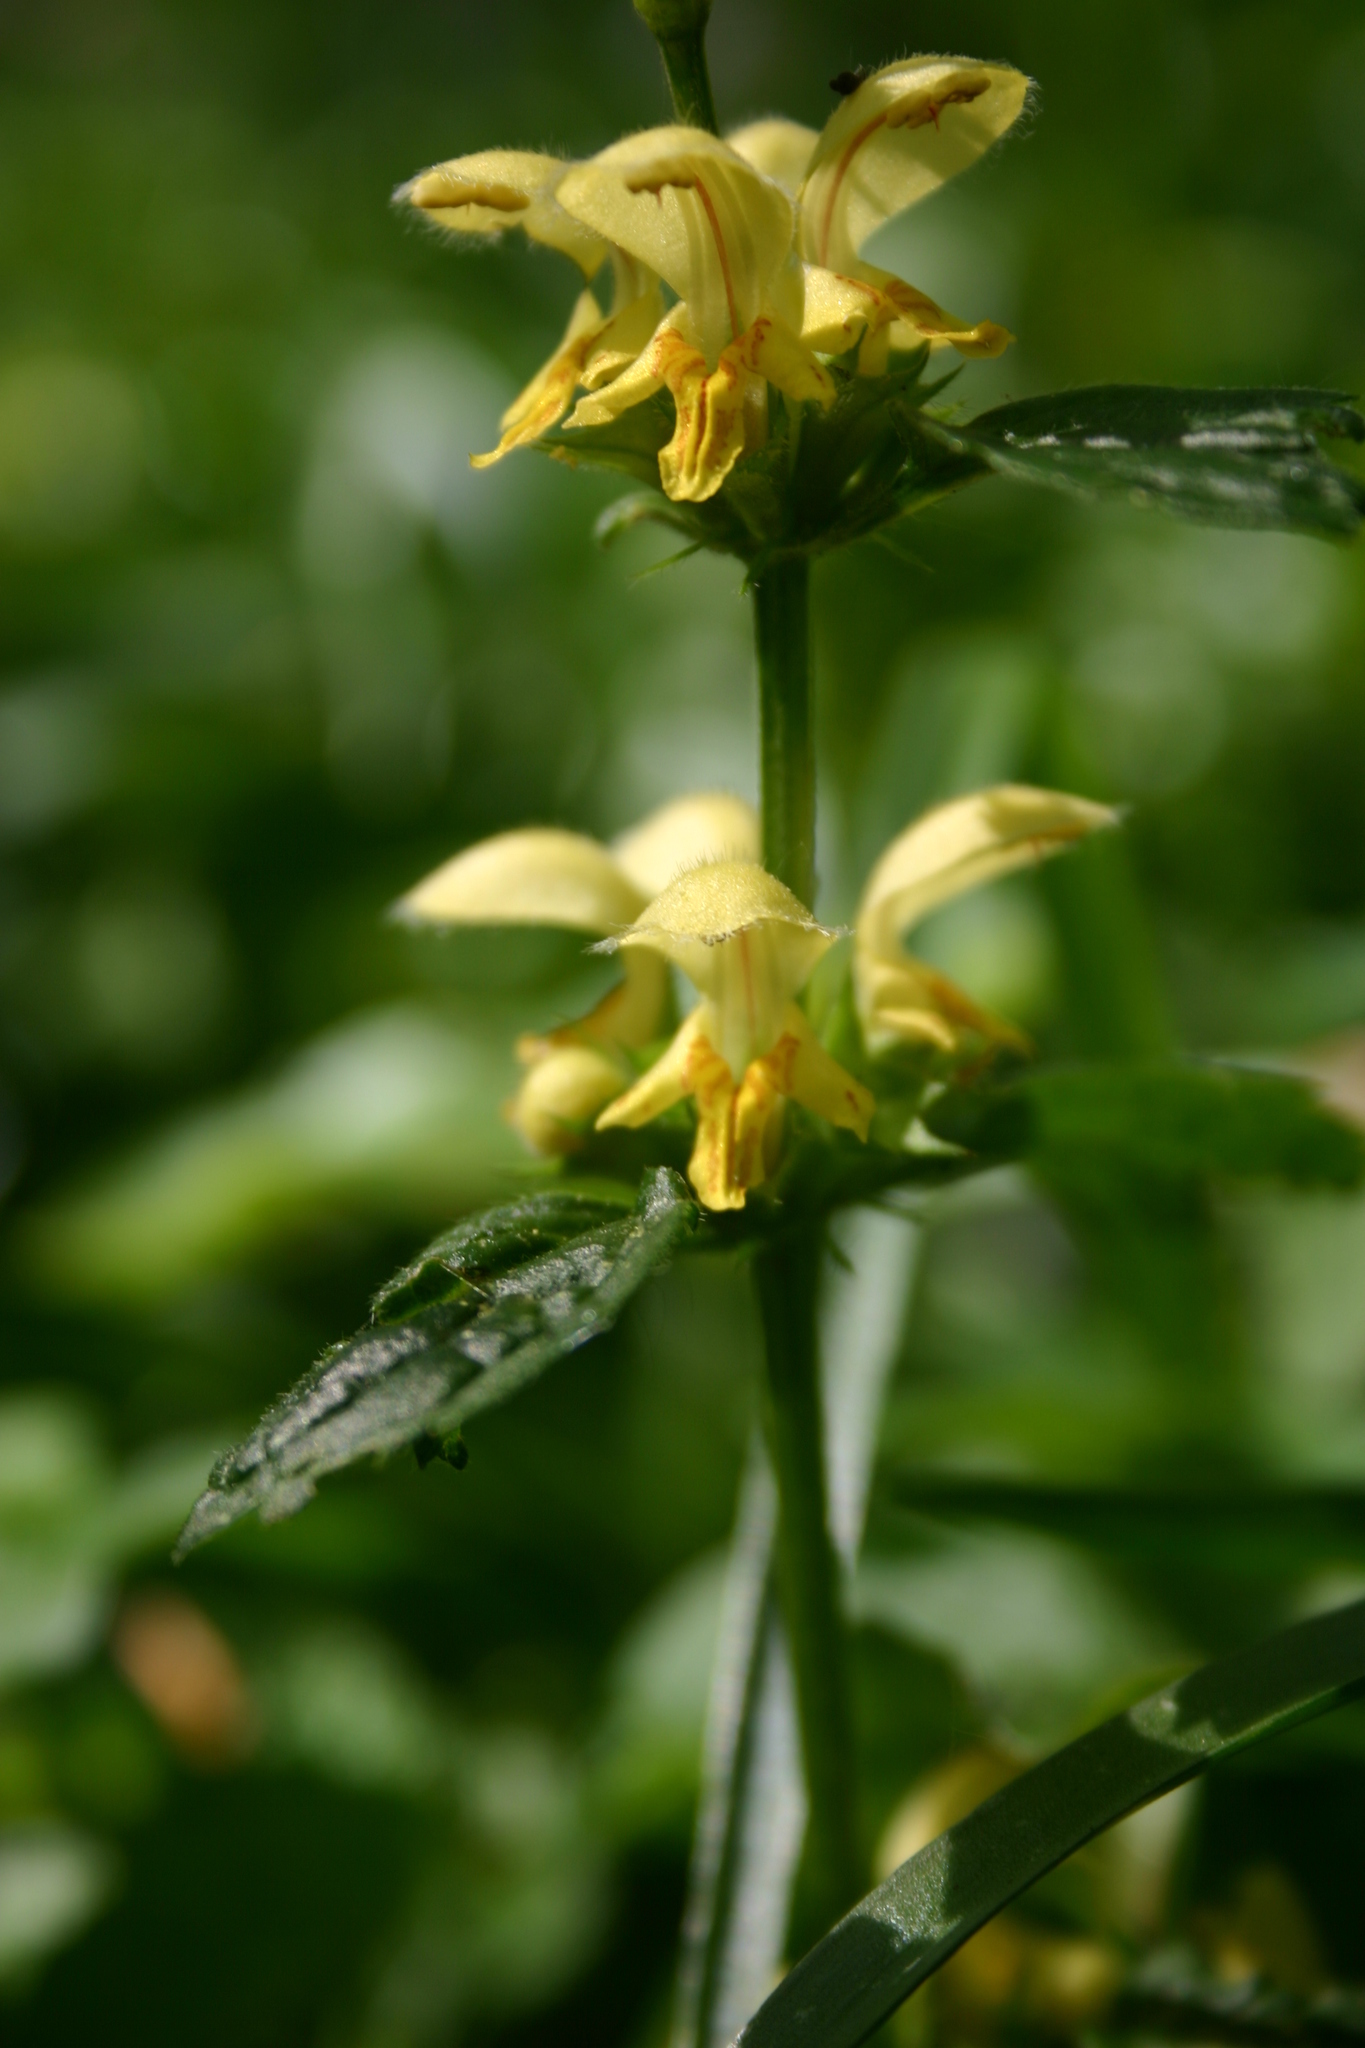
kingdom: Plantae
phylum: Tracheophyta
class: Magnoliopsida
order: Lamiales
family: Lamiaceae
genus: Lamium
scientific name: Lamium galeobdolon
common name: Yellow archangel
